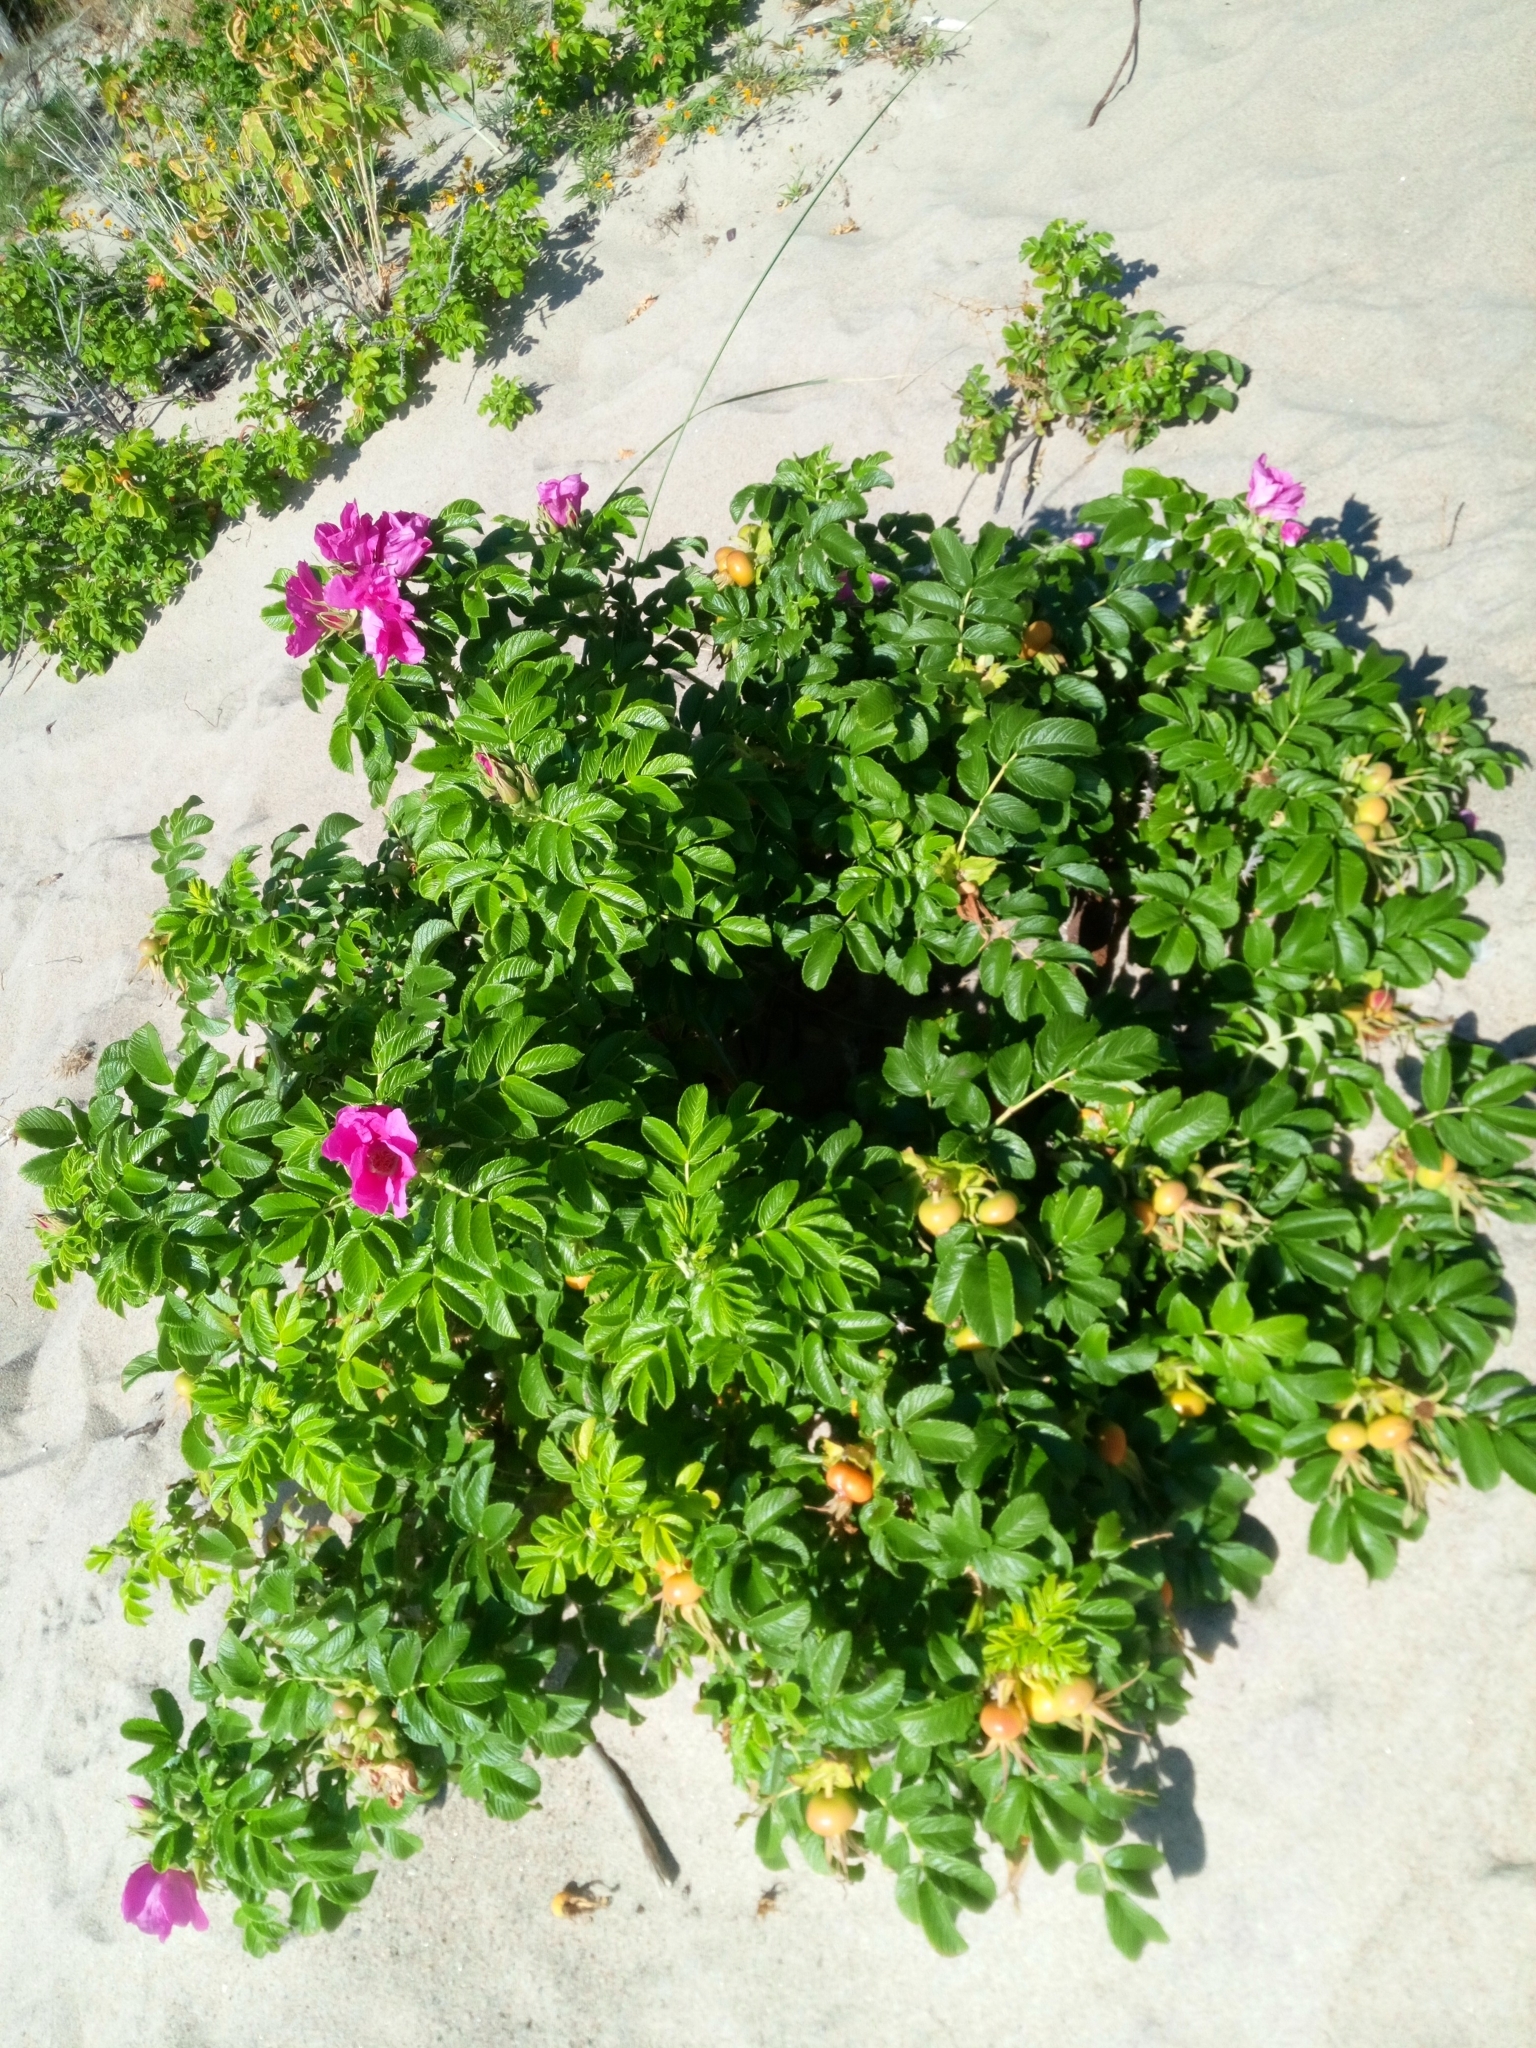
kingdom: Plantae
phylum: Tracheophyta
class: Magnoliopsida
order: Rosales
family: Rosaceae
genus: Rosa
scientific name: Rosa rugosa
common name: Japanese rose
